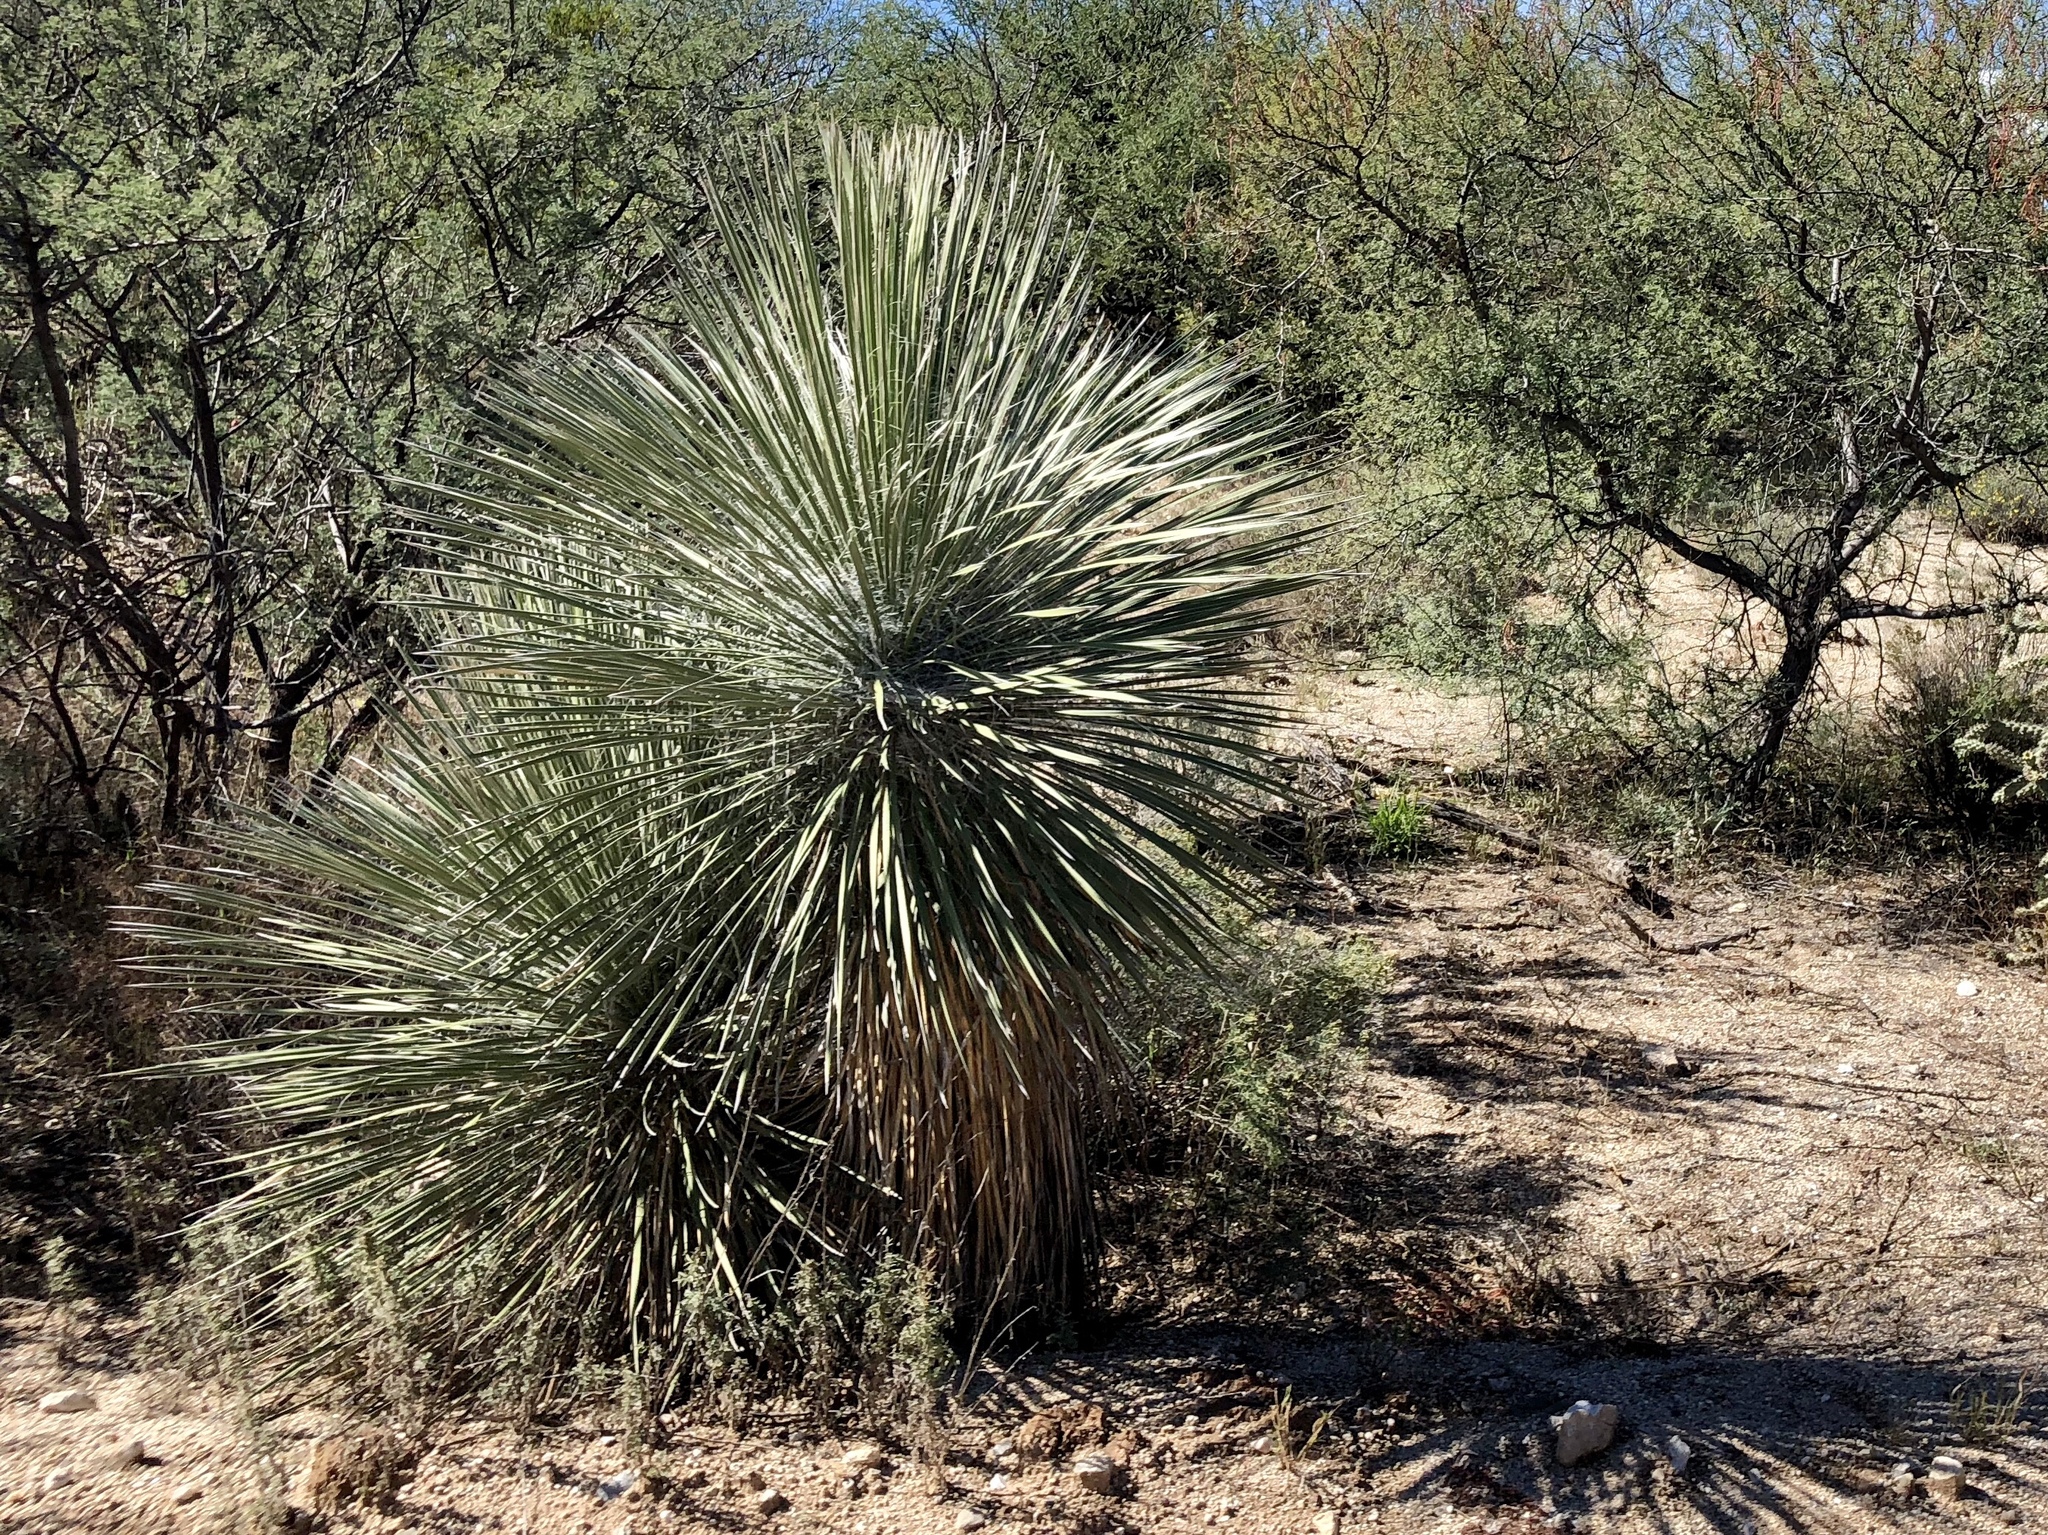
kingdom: Plantae
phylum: Tracheophyta
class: Liliopsida
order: Asparagales
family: Asparagaceae
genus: Yucca
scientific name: Yucca elata
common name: Palmella
